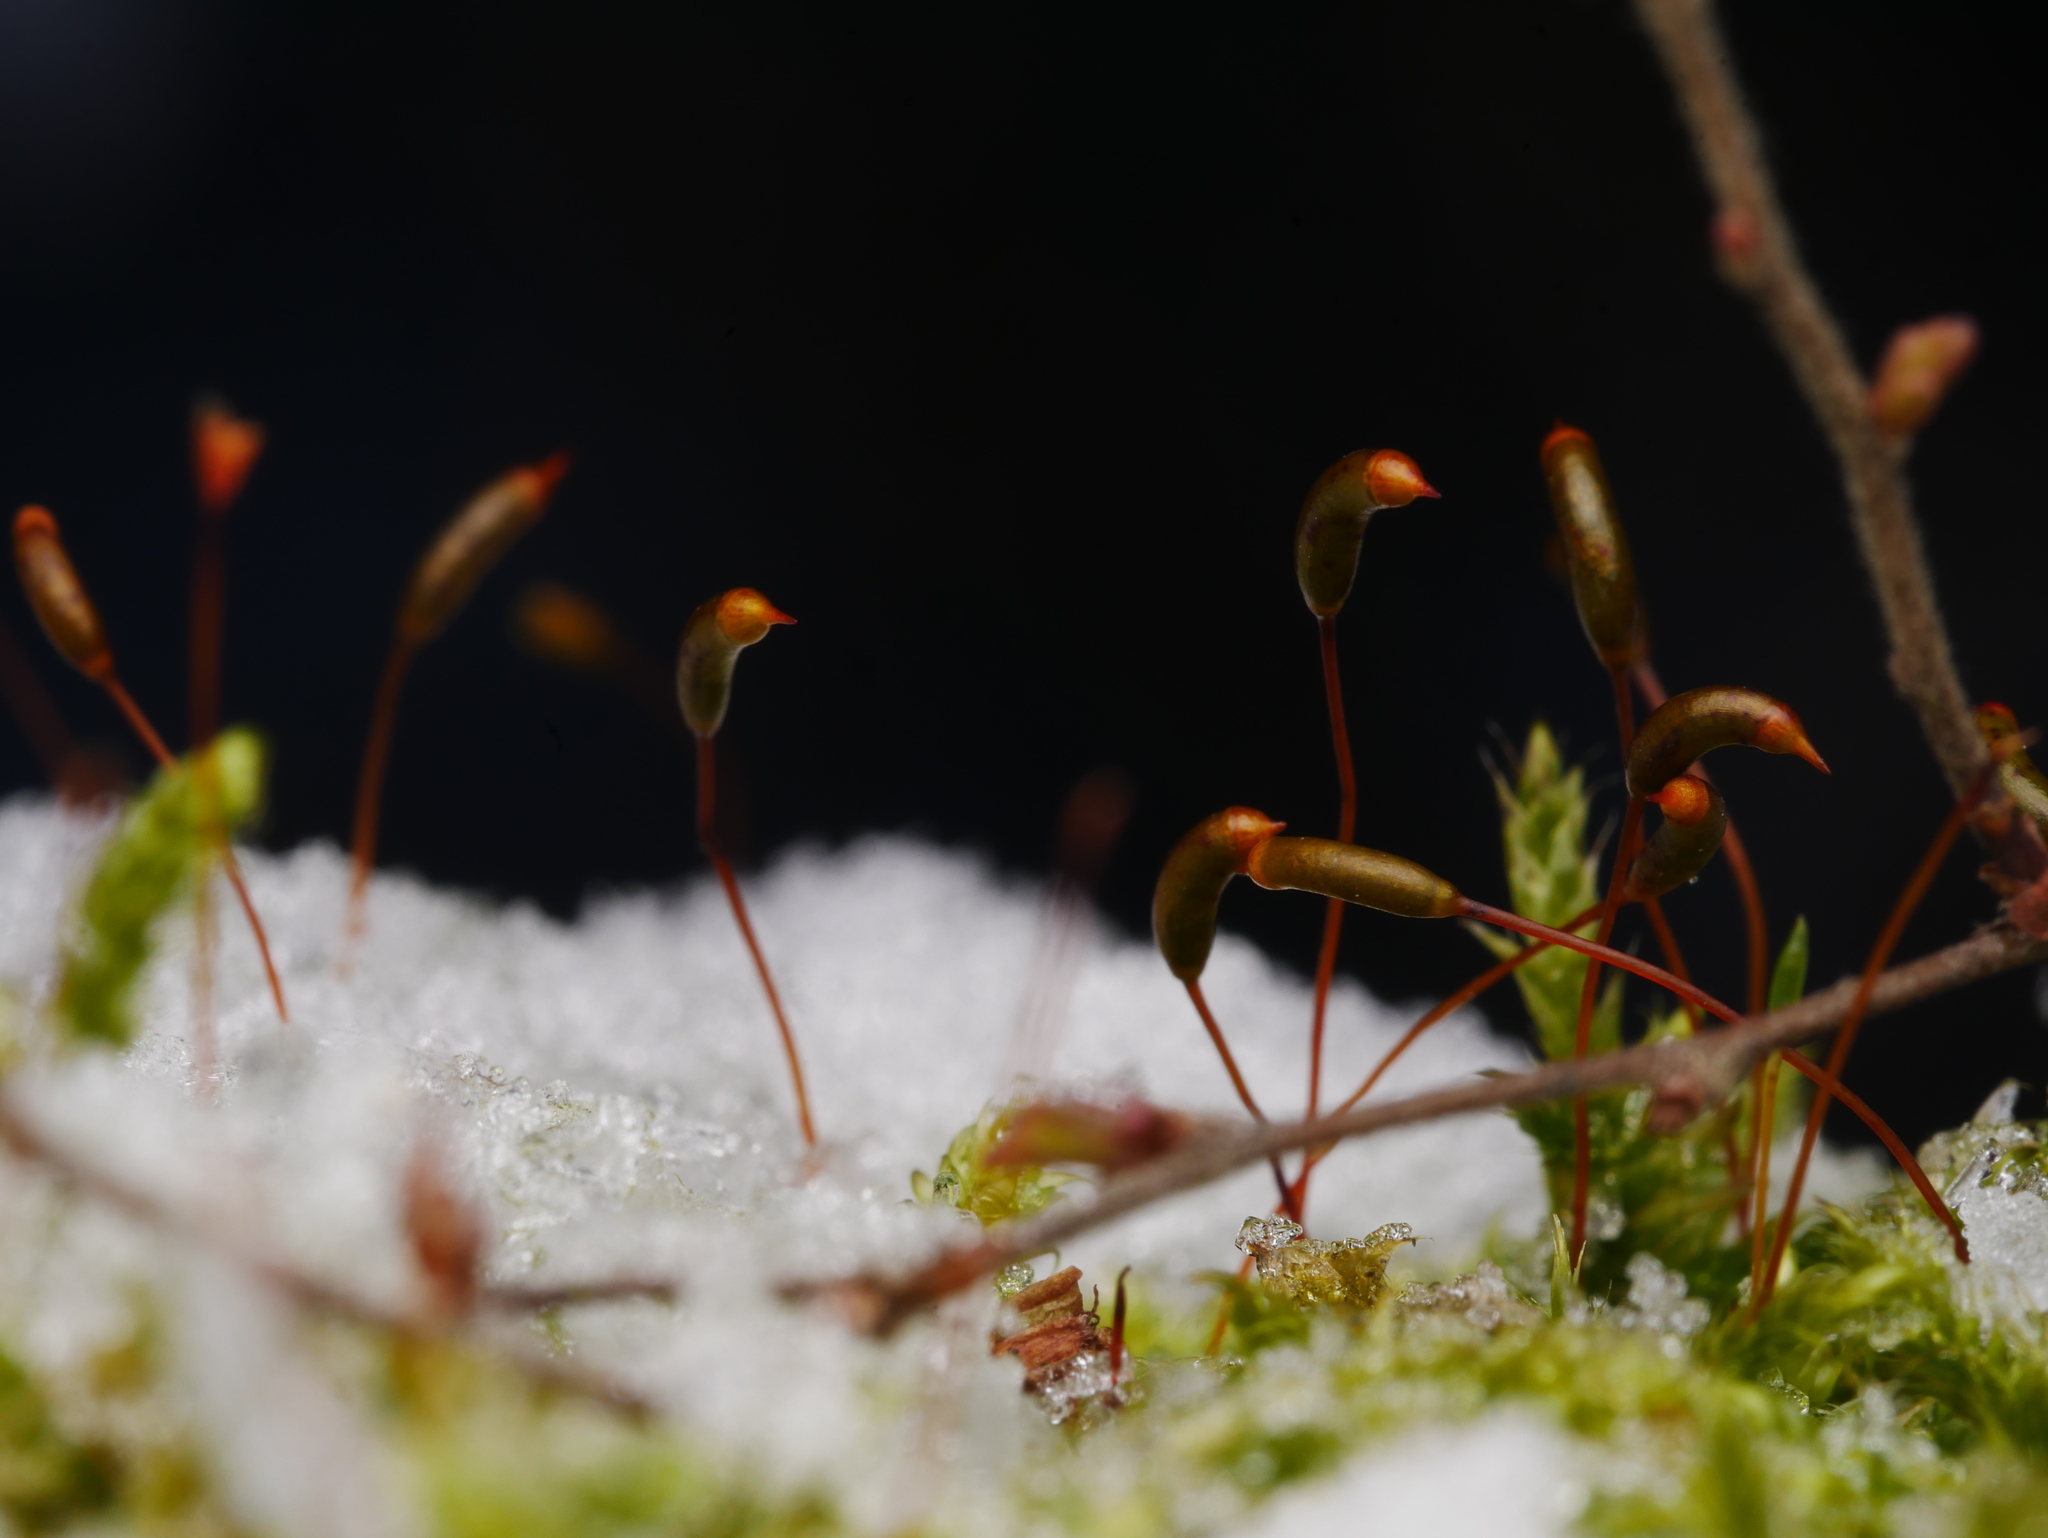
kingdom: Plantae
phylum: Bryophyta
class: Bryopsida
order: Hypnales
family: Hypnaceae
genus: Hypnum
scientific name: Hypnum cupressiforme
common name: Cypress-leaved plait-moss
